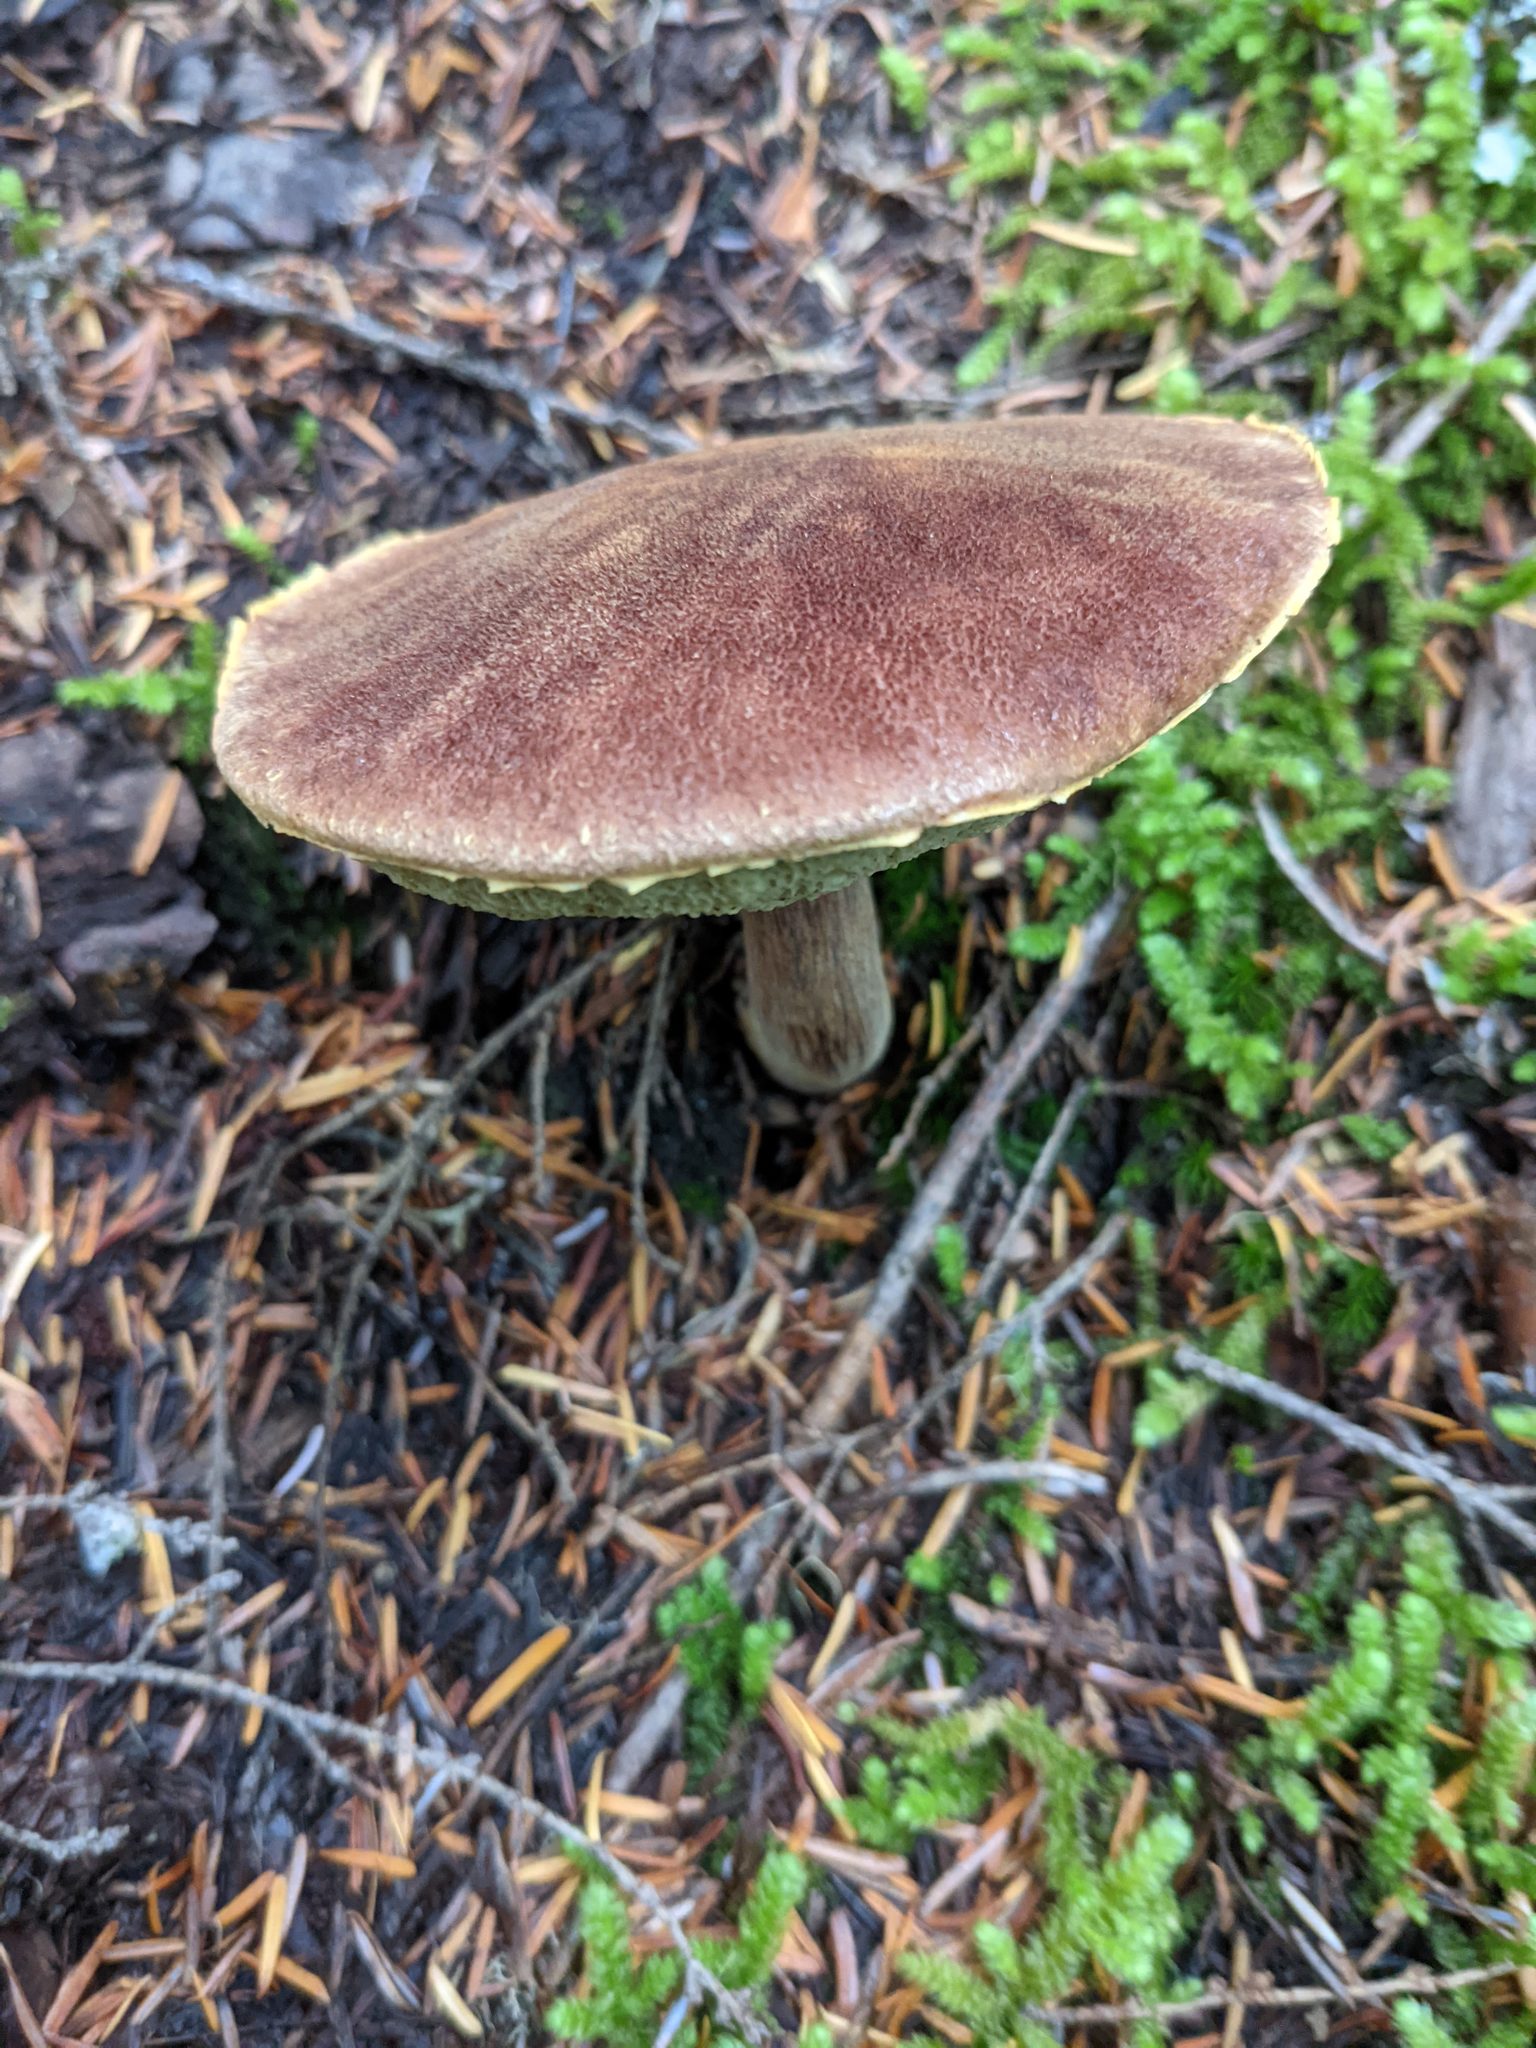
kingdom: Fungi
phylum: Basidiomycota
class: Agaricomycetes
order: Boletales
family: Boletaceae
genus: Aureoboletus
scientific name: Aureoboletus mirabilis
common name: Admirable bolete
